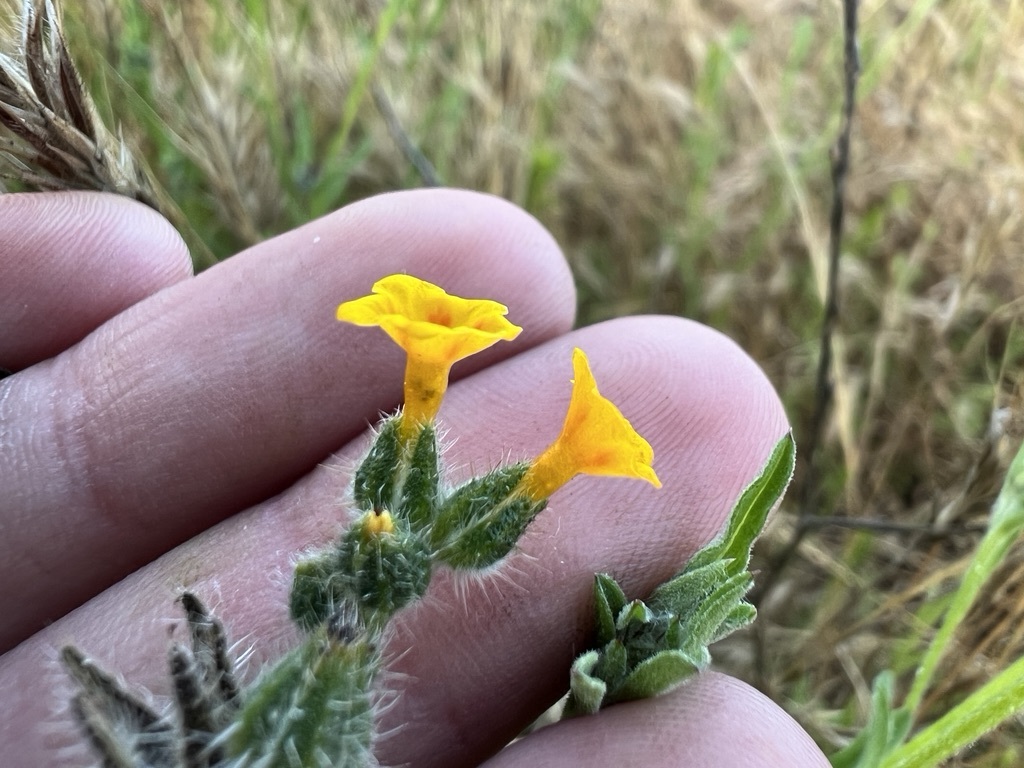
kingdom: Plantae
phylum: Tracheophyta
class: Magnoliopsida
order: Boraginales
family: Boraginaceae
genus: Amsinckia
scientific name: Amsinckia menziesii
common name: Menzies' fiddleneck
